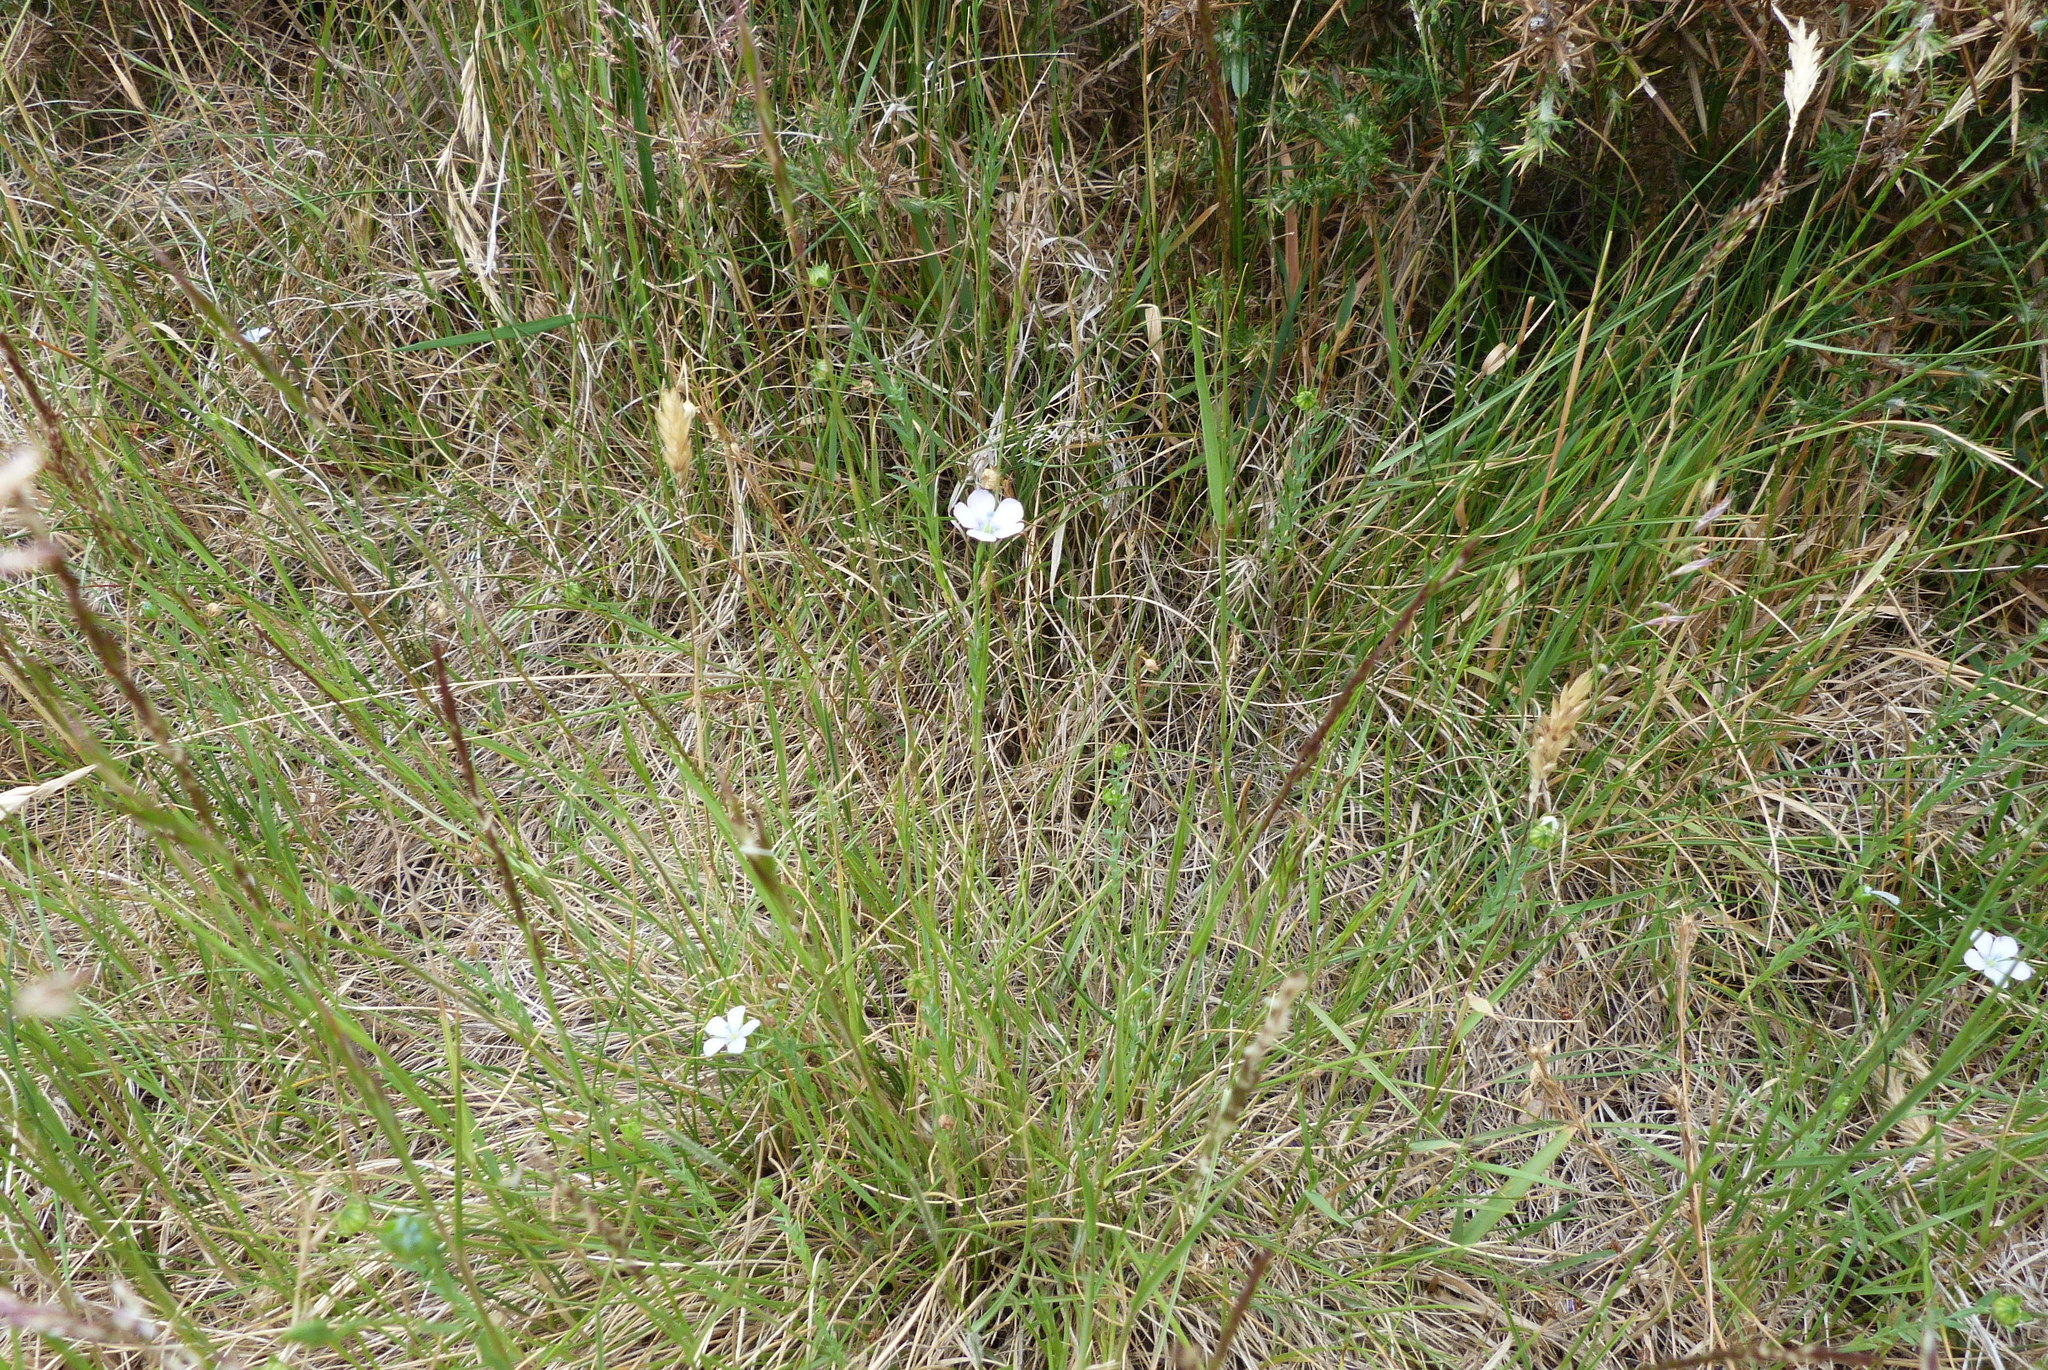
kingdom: Plantae
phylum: Tracheophyta
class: Magnoliopsida
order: Malpighiales
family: Linaceae
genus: Linum
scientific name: Linum bienne
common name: Pale flax
